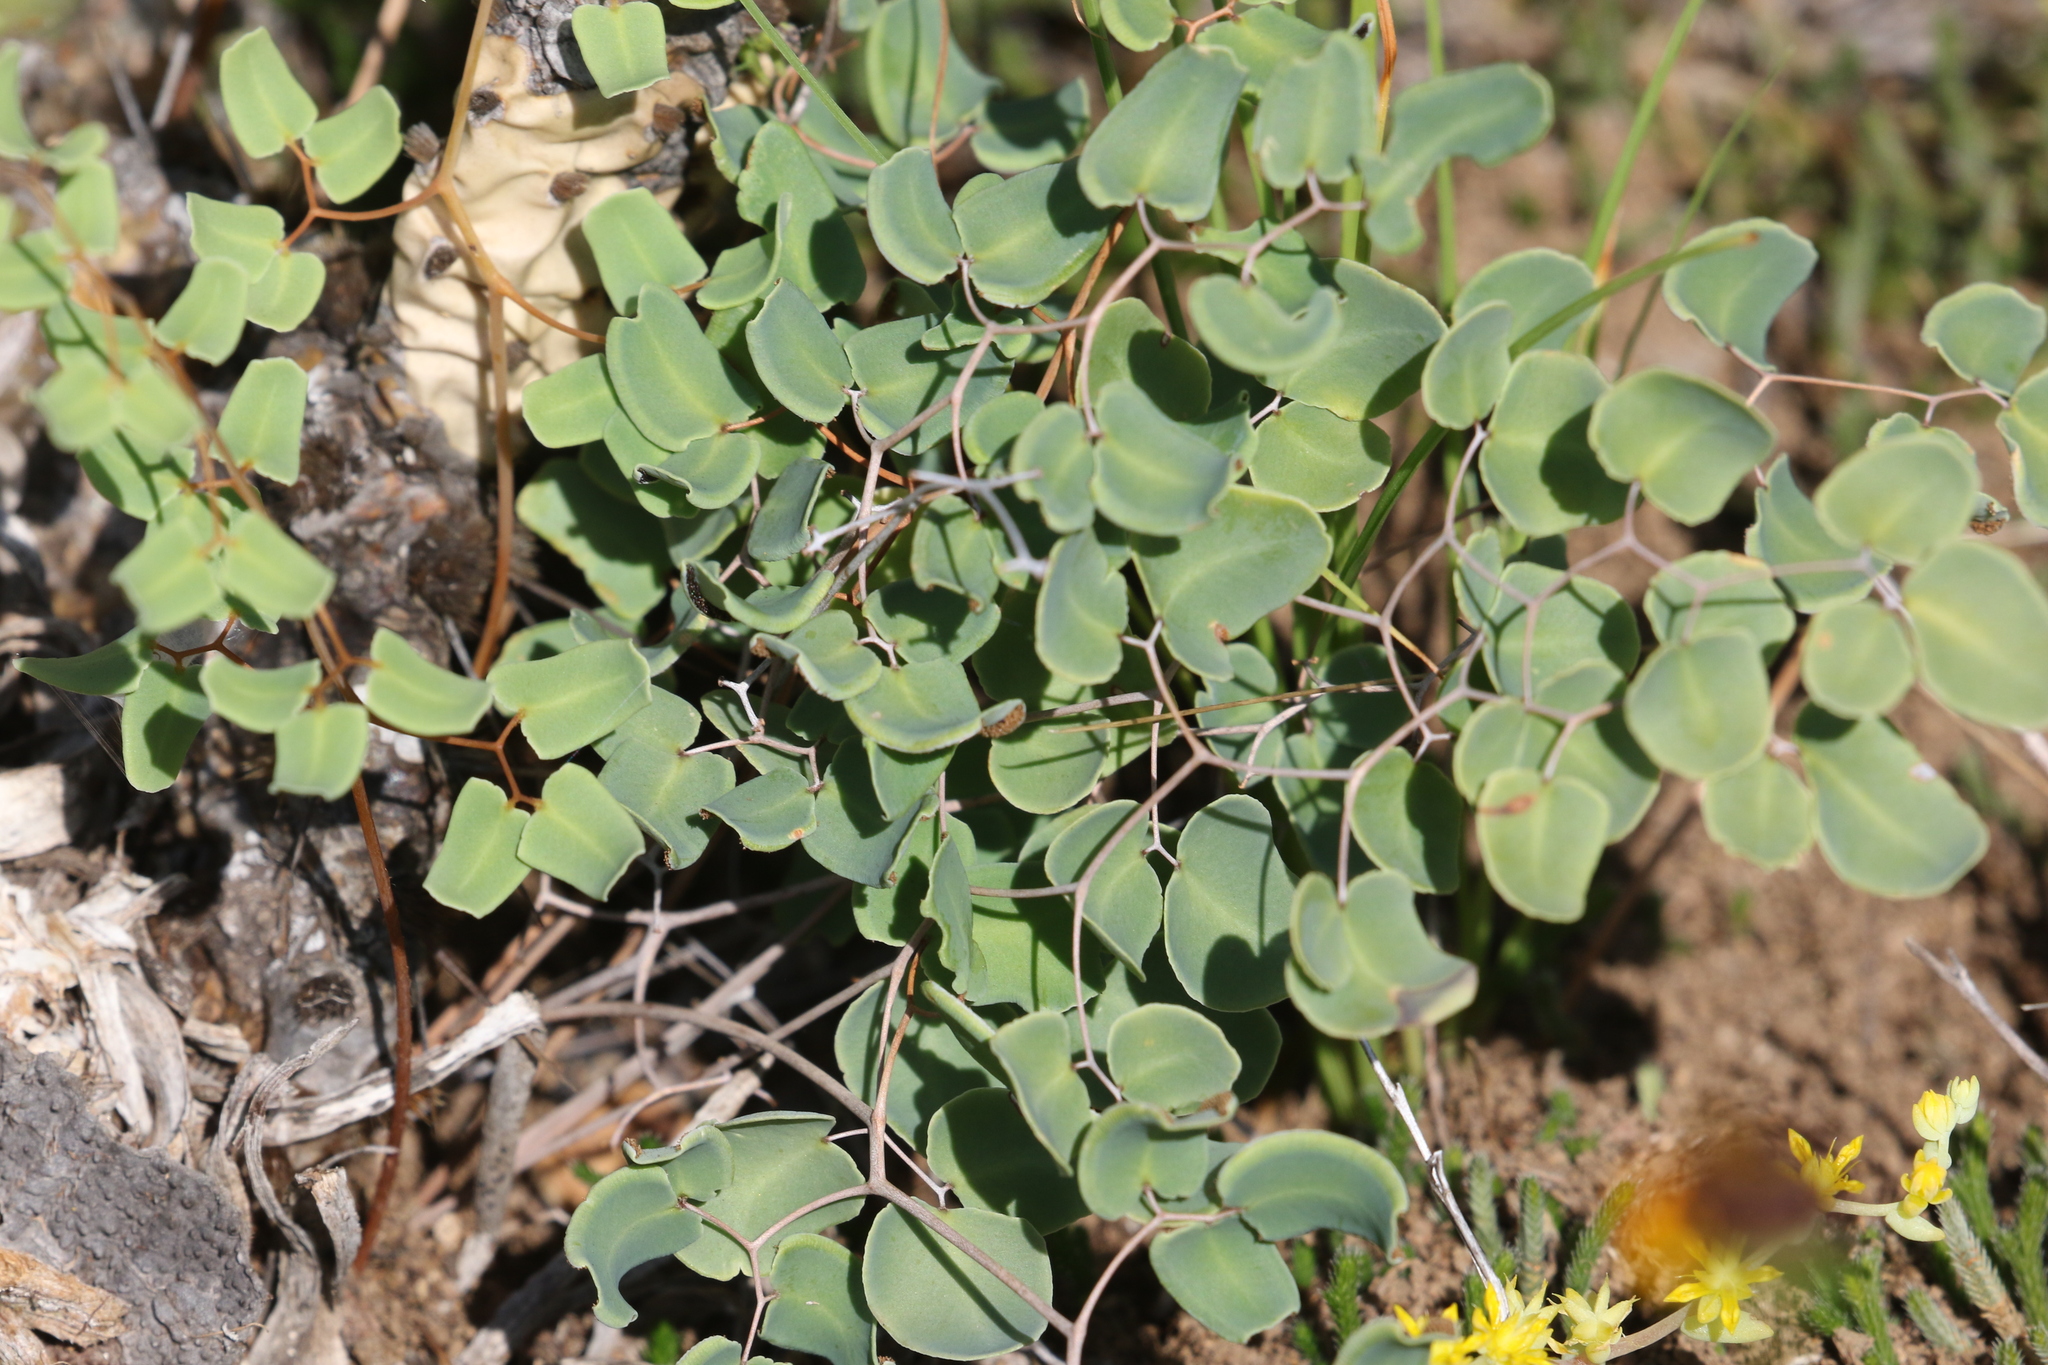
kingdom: Plantae
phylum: Tracheophyta
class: Polypodiopsida
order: Polypodiales
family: Pteridaceae
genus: Pellaea
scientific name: Pellaea ovata
